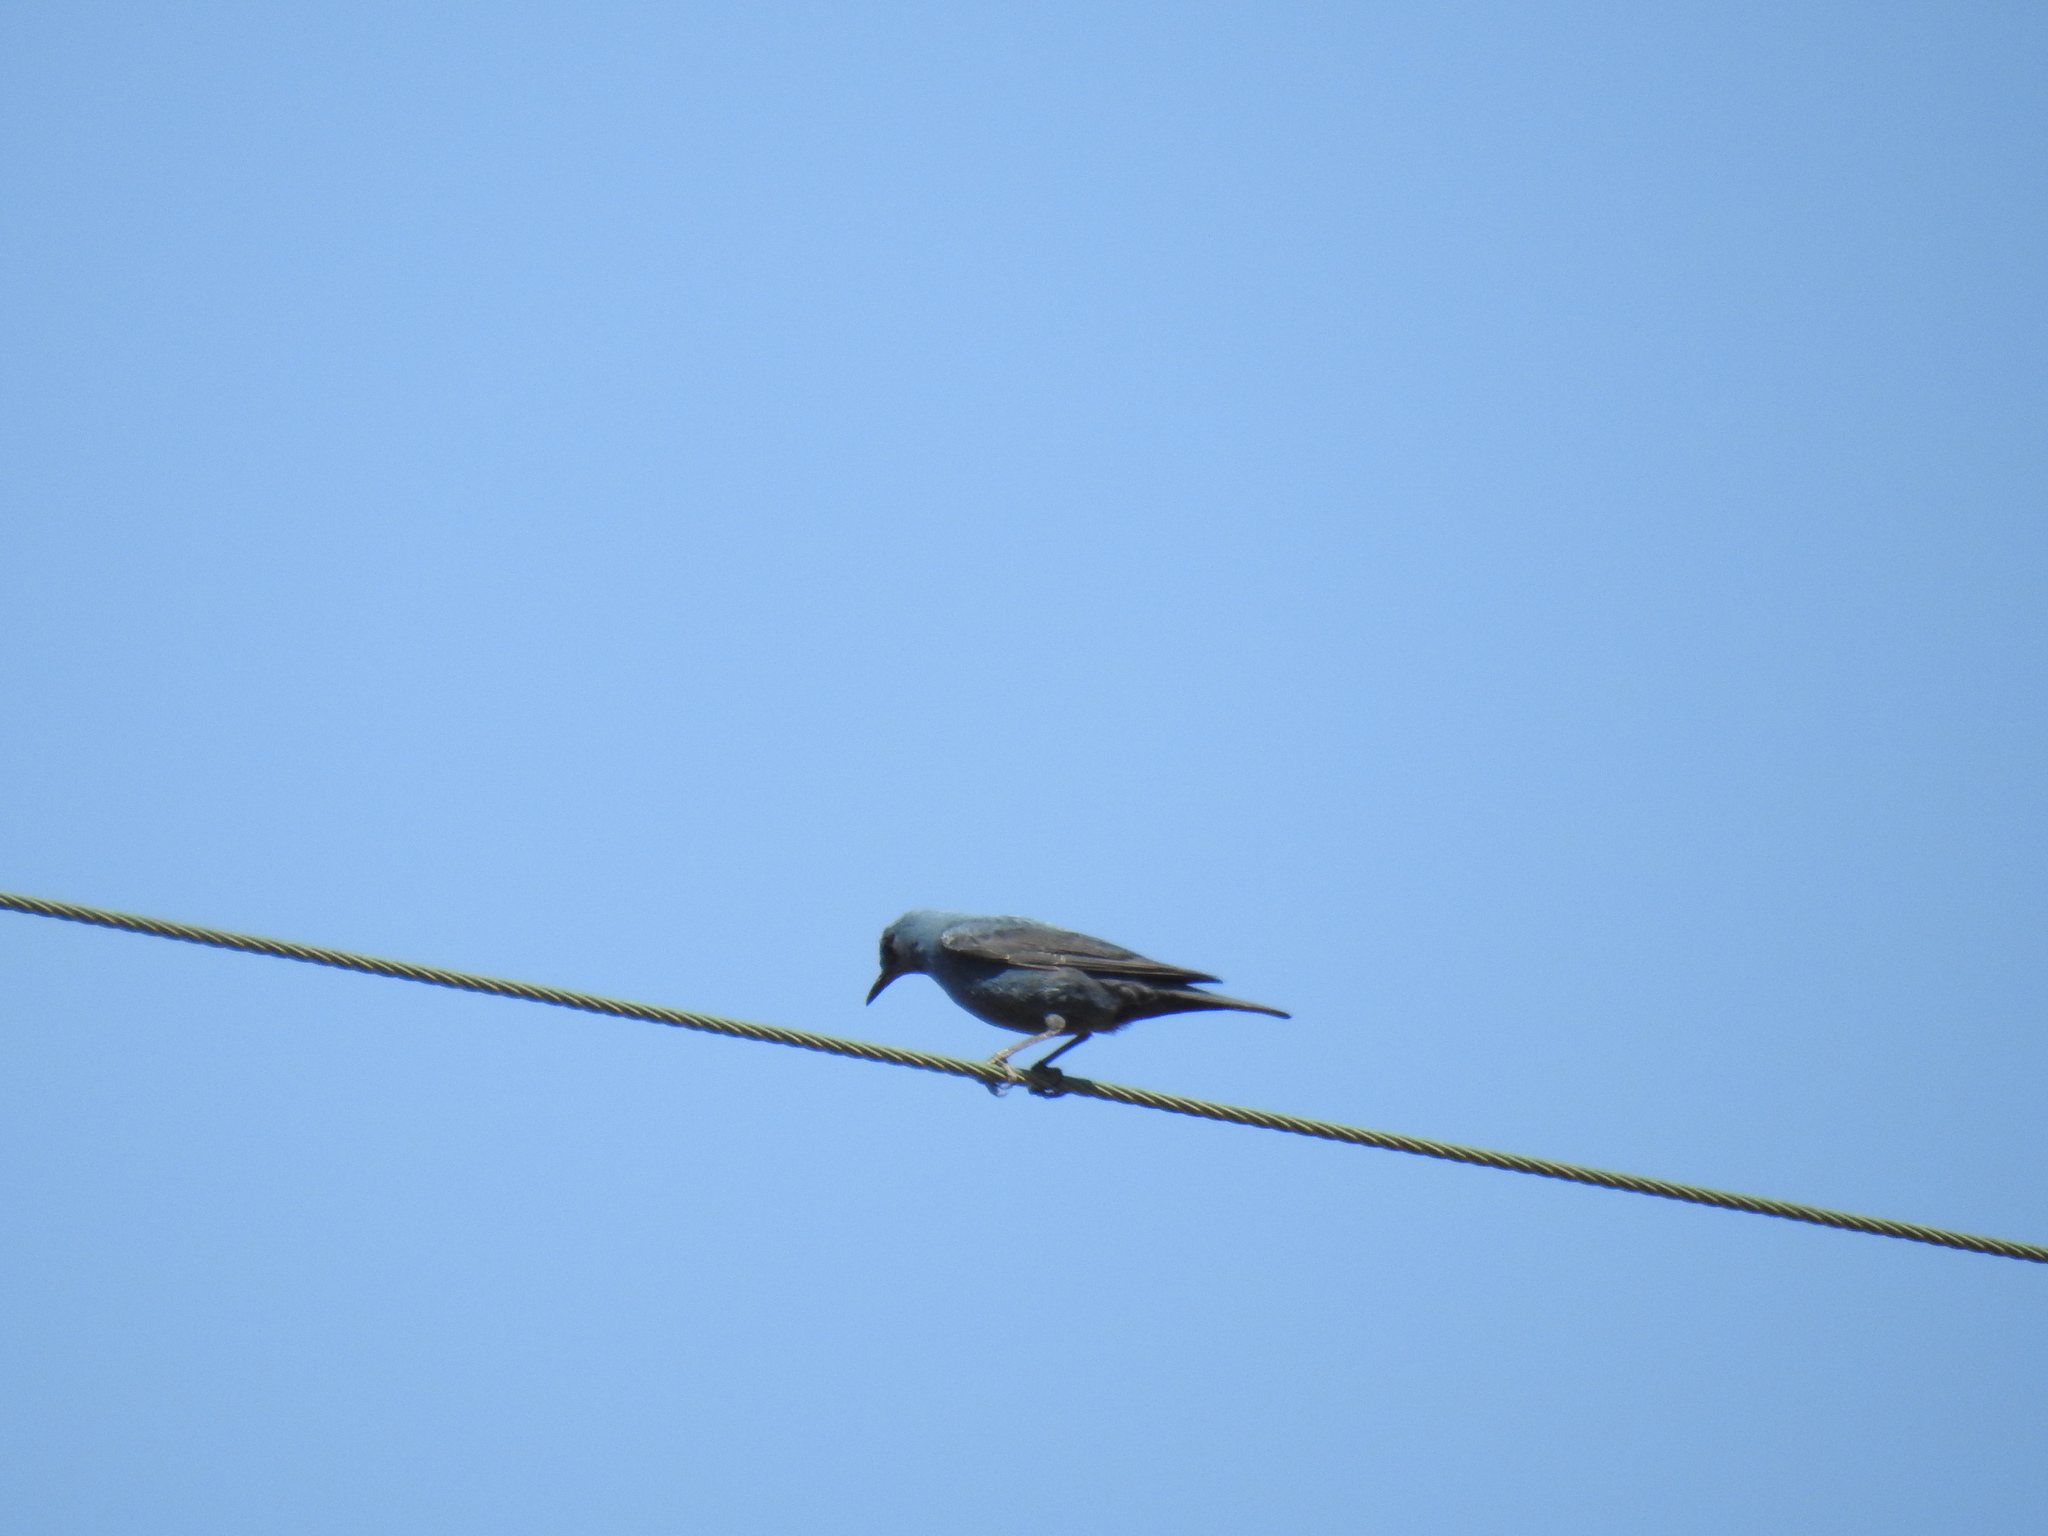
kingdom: Animalia
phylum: Chordata
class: Aves
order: Passeriformes
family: Muscicapidae
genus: Monticola
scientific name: Monticola solitarius
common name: Blue rock thrush
